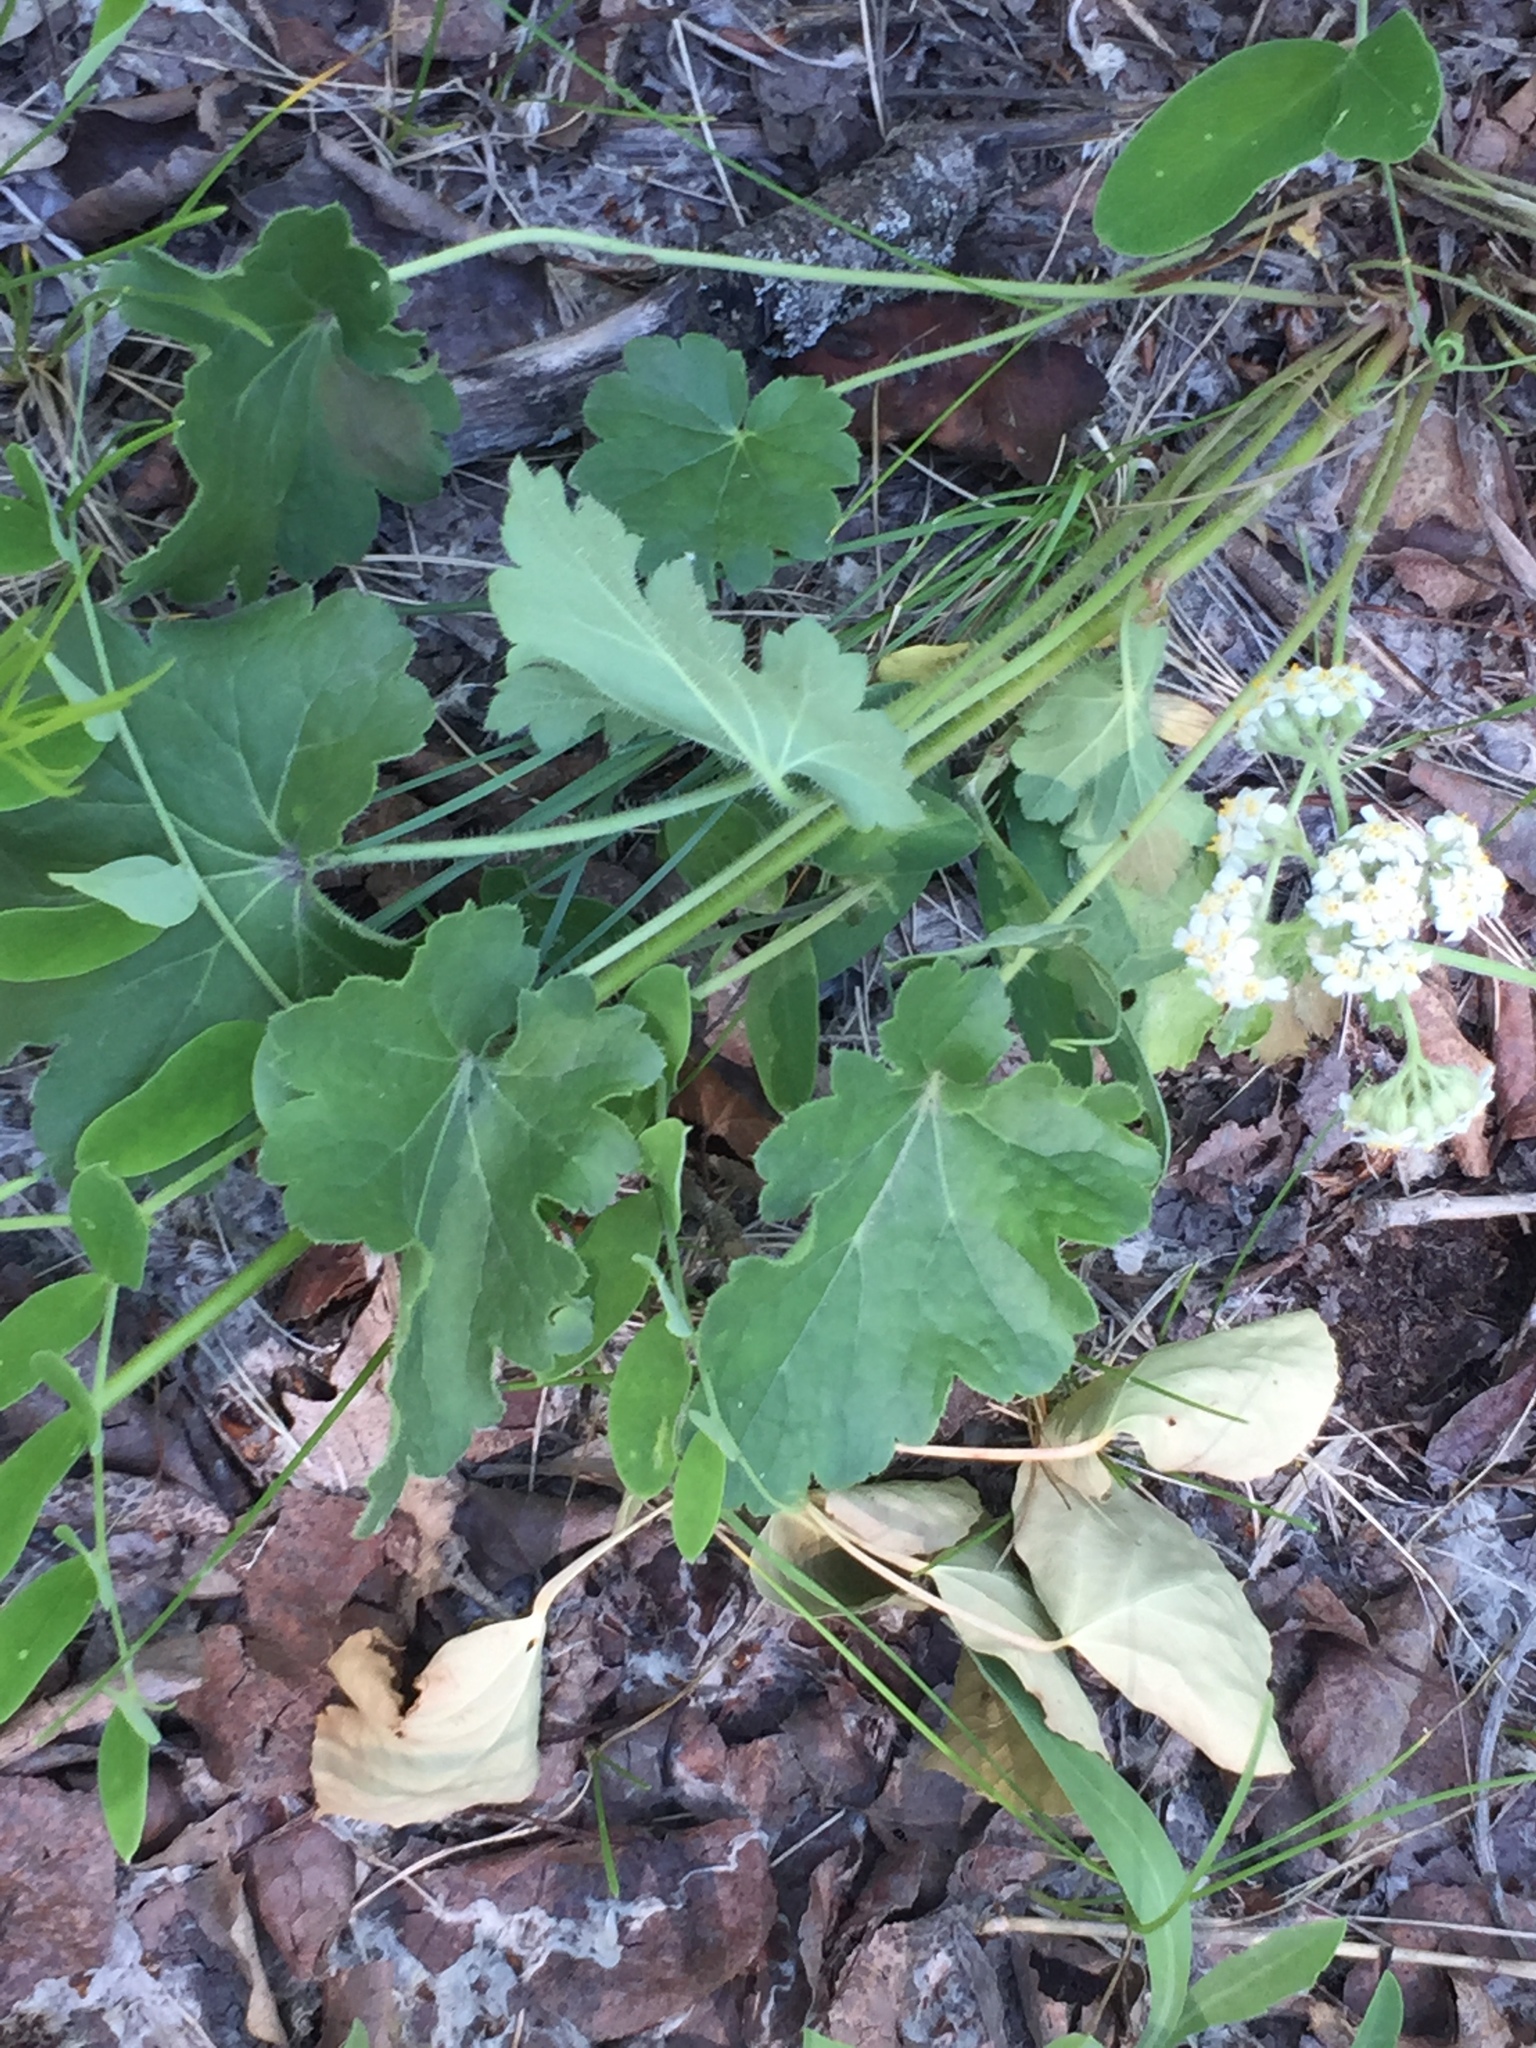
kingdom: Plantae
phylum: Tracheophyta
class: Magnoliopsida
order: Saxifragales
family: Saxifragaceae
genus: Heuchera
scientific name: Heuchera richardsonii
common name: Richardson's alumroot
